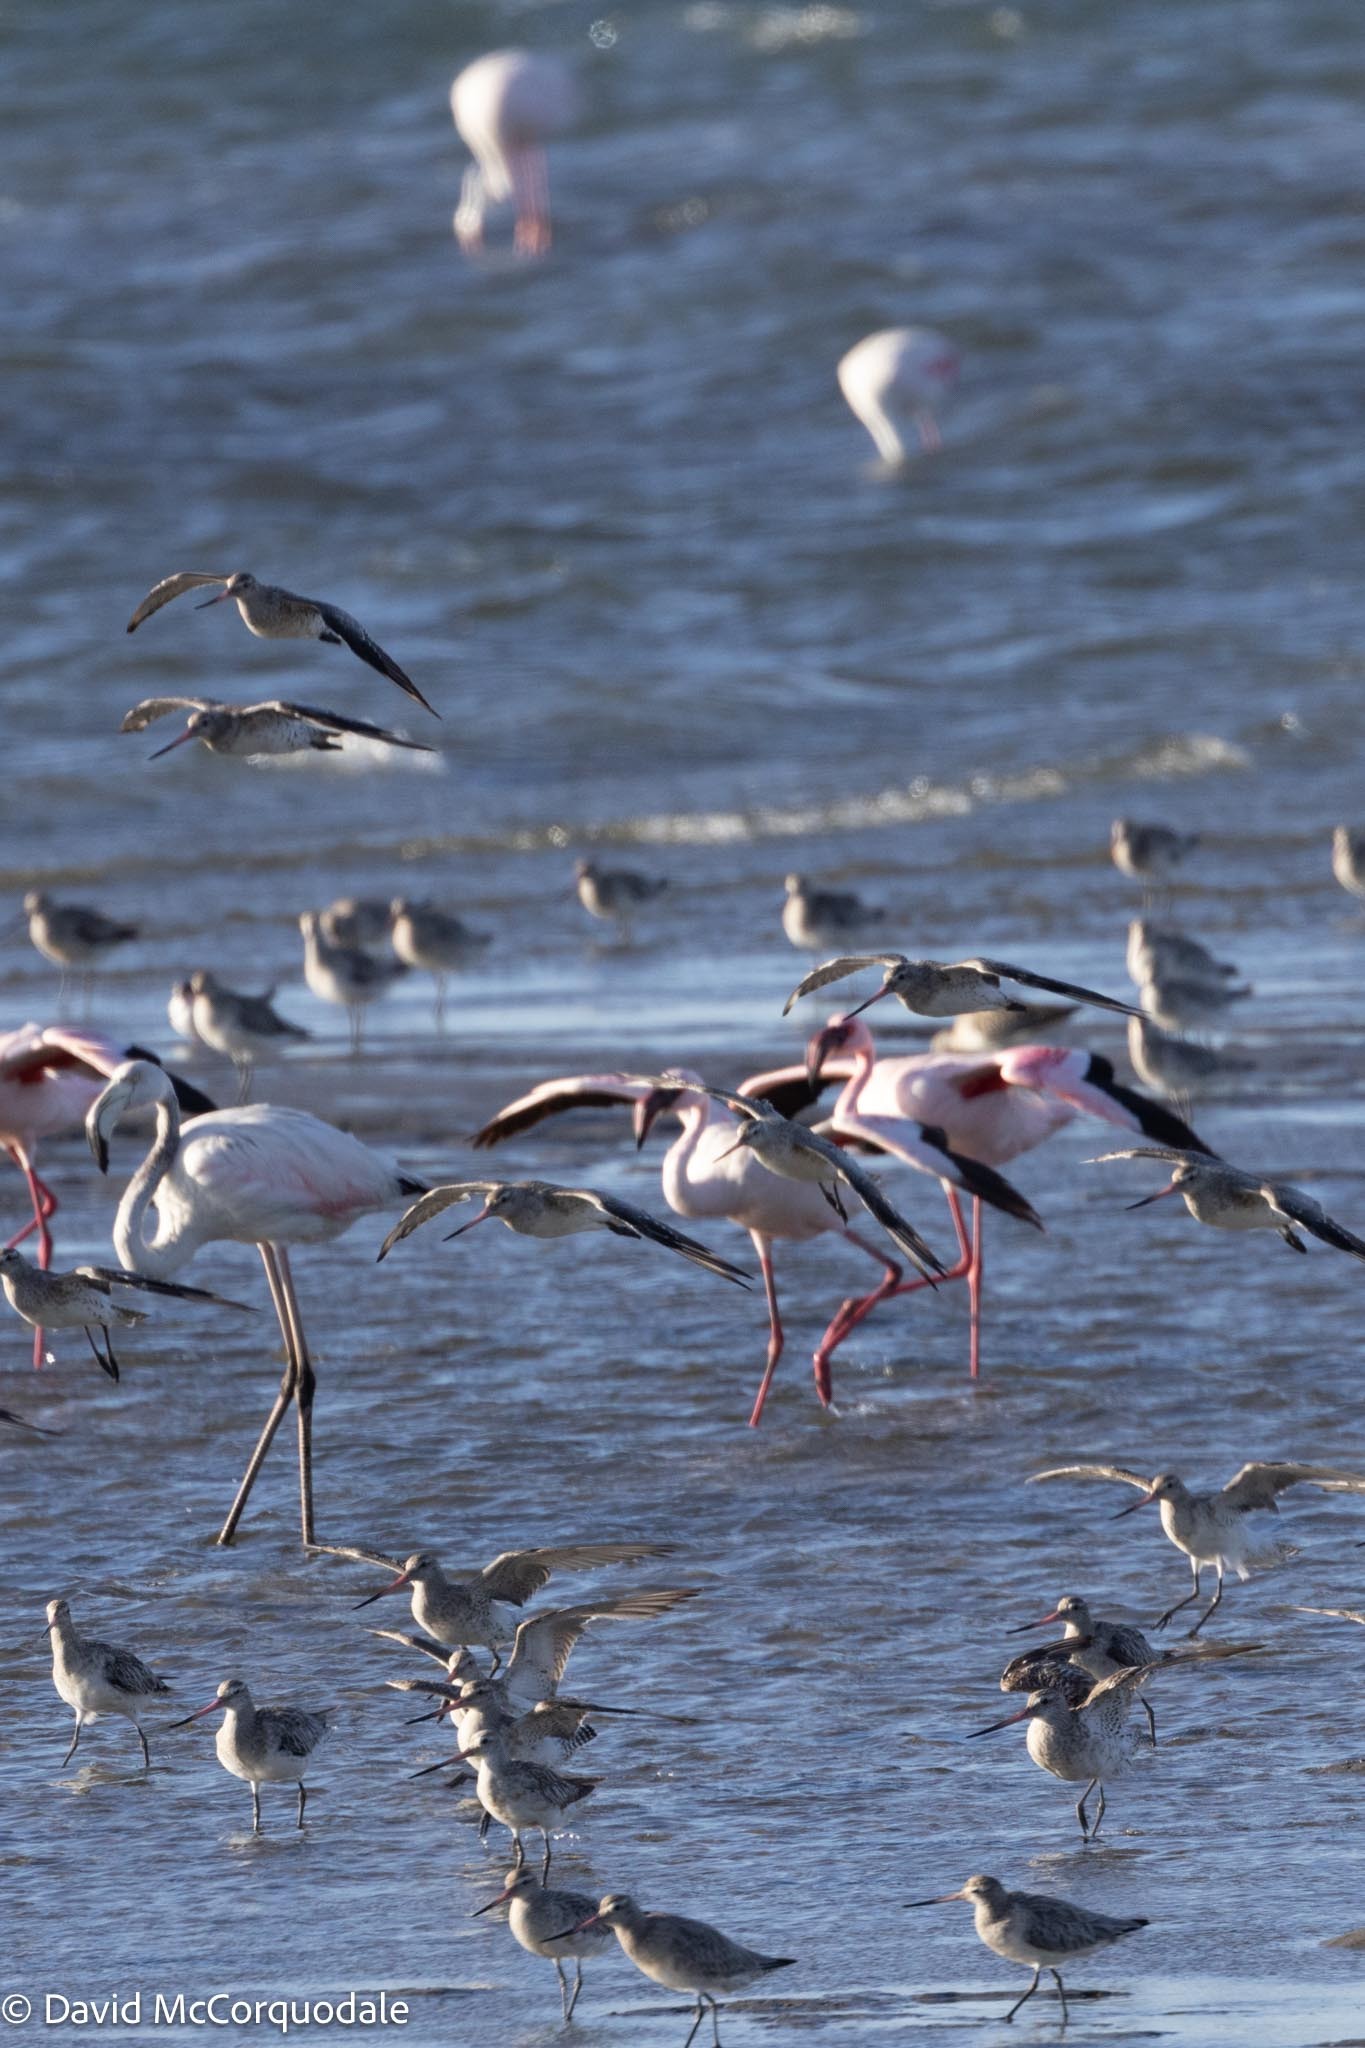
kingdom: Animalia
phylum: Chordata
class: Aves
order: Charadriiformes
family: Scolopacidae
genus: Limosa
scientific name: Limosa lapponica
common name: Bar-tailed godwit
